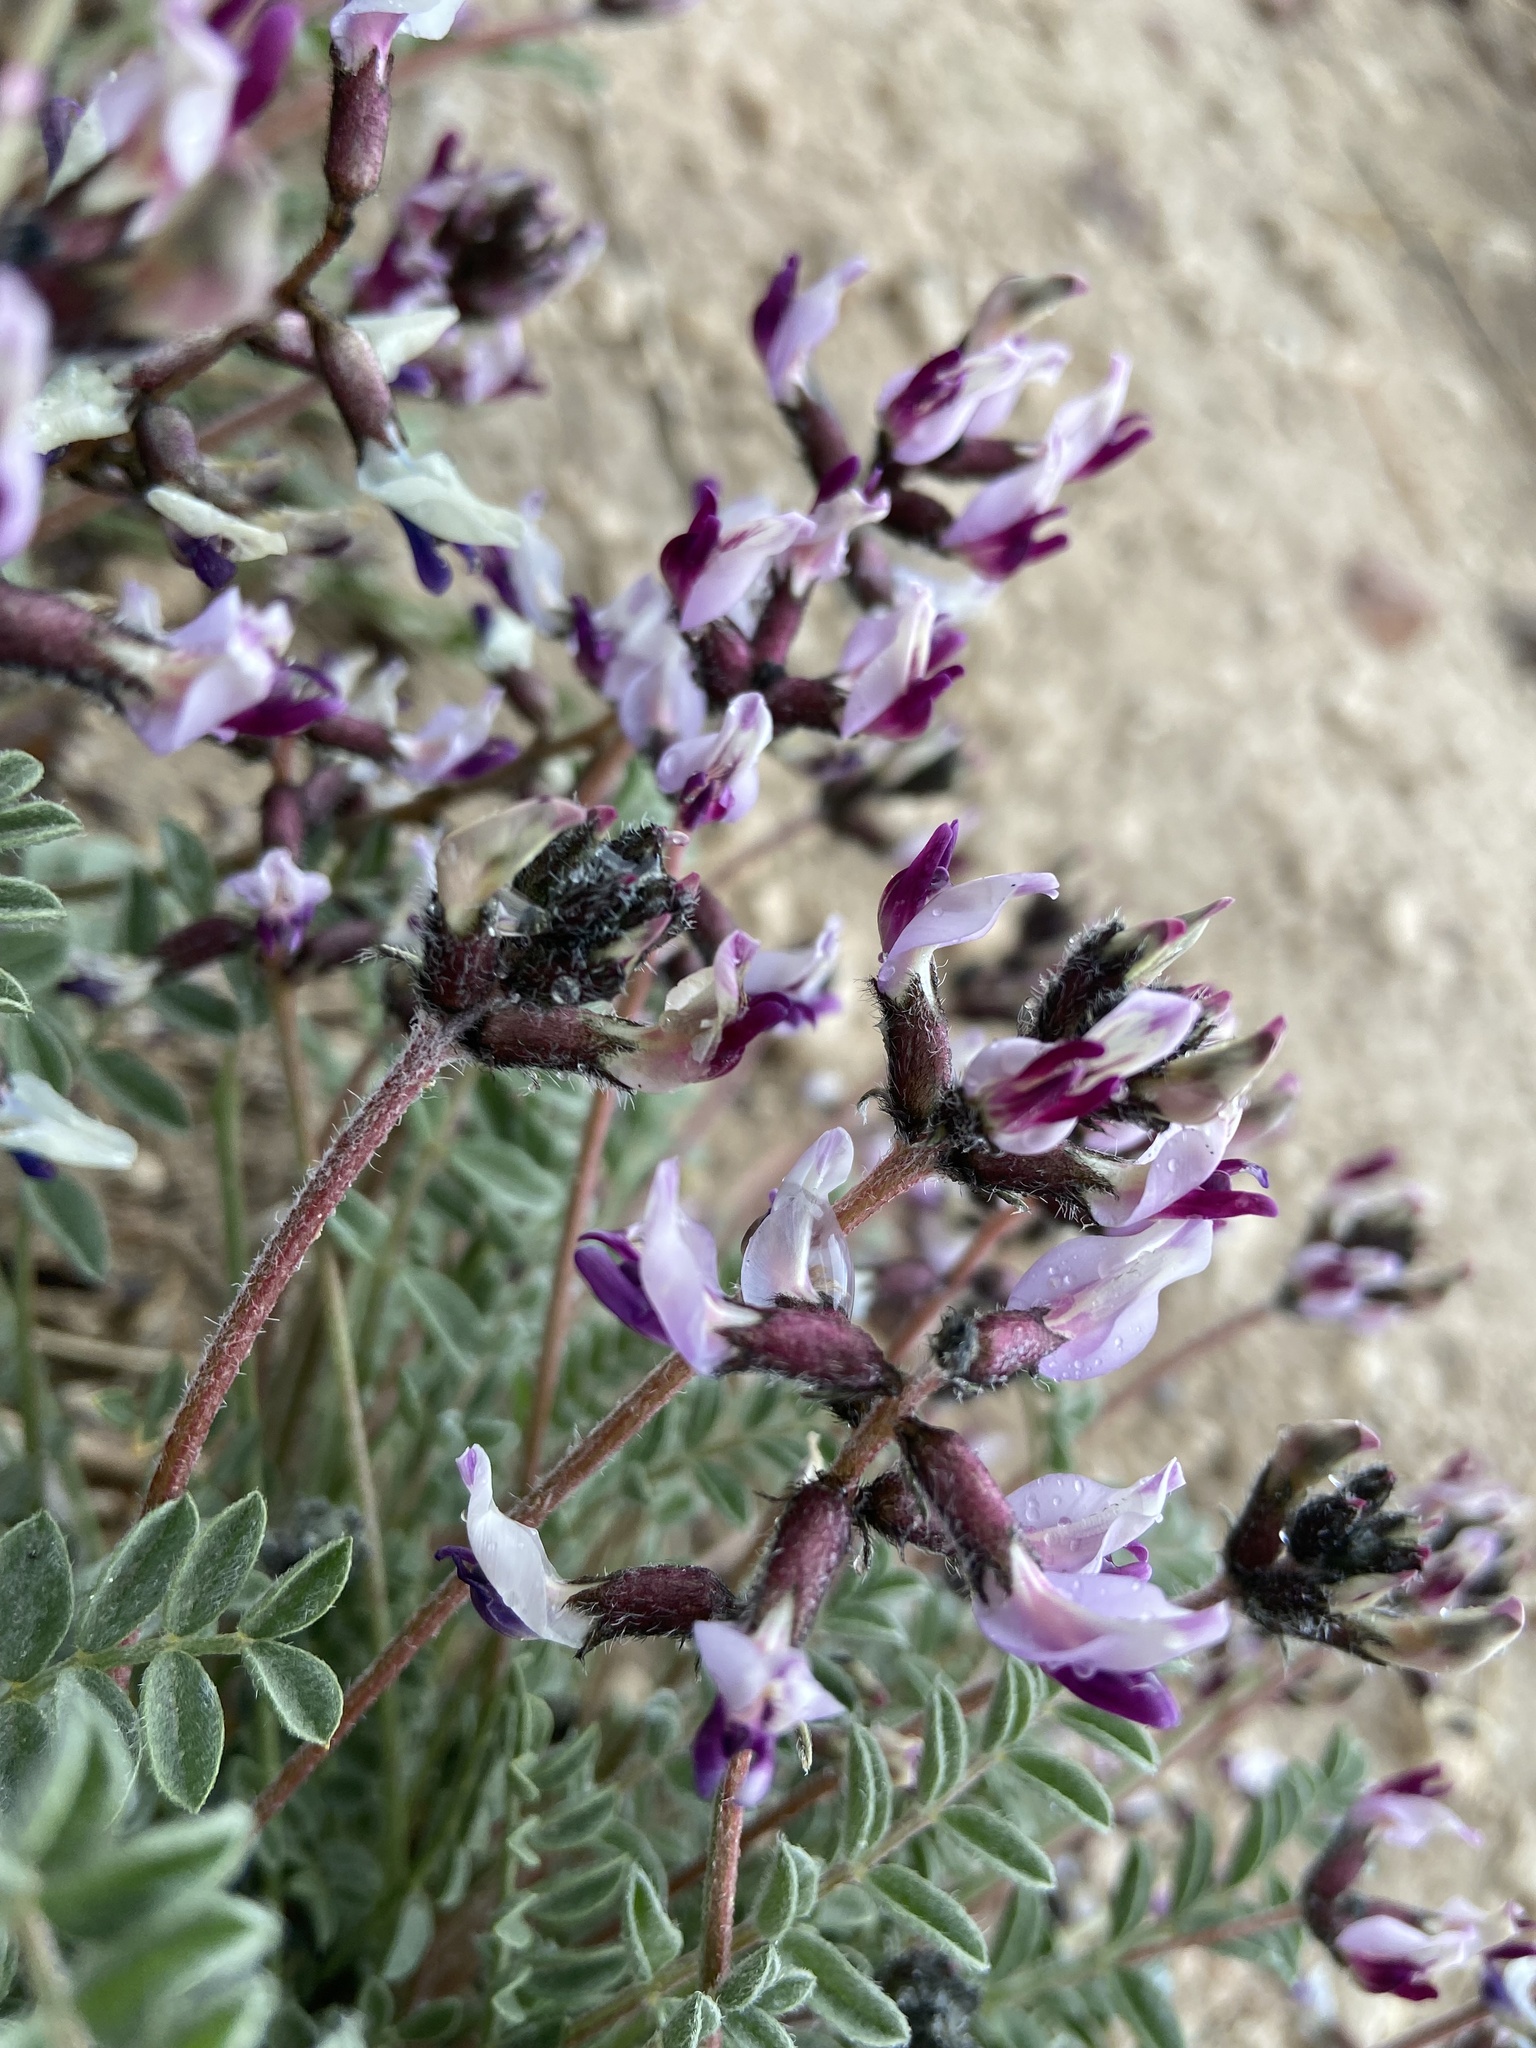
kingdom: Plantae
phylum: Tracheophyta
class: Magnoliopsida
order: Fabales
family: Fabaceae
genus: Astragalus
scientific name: Astragalus layneae
